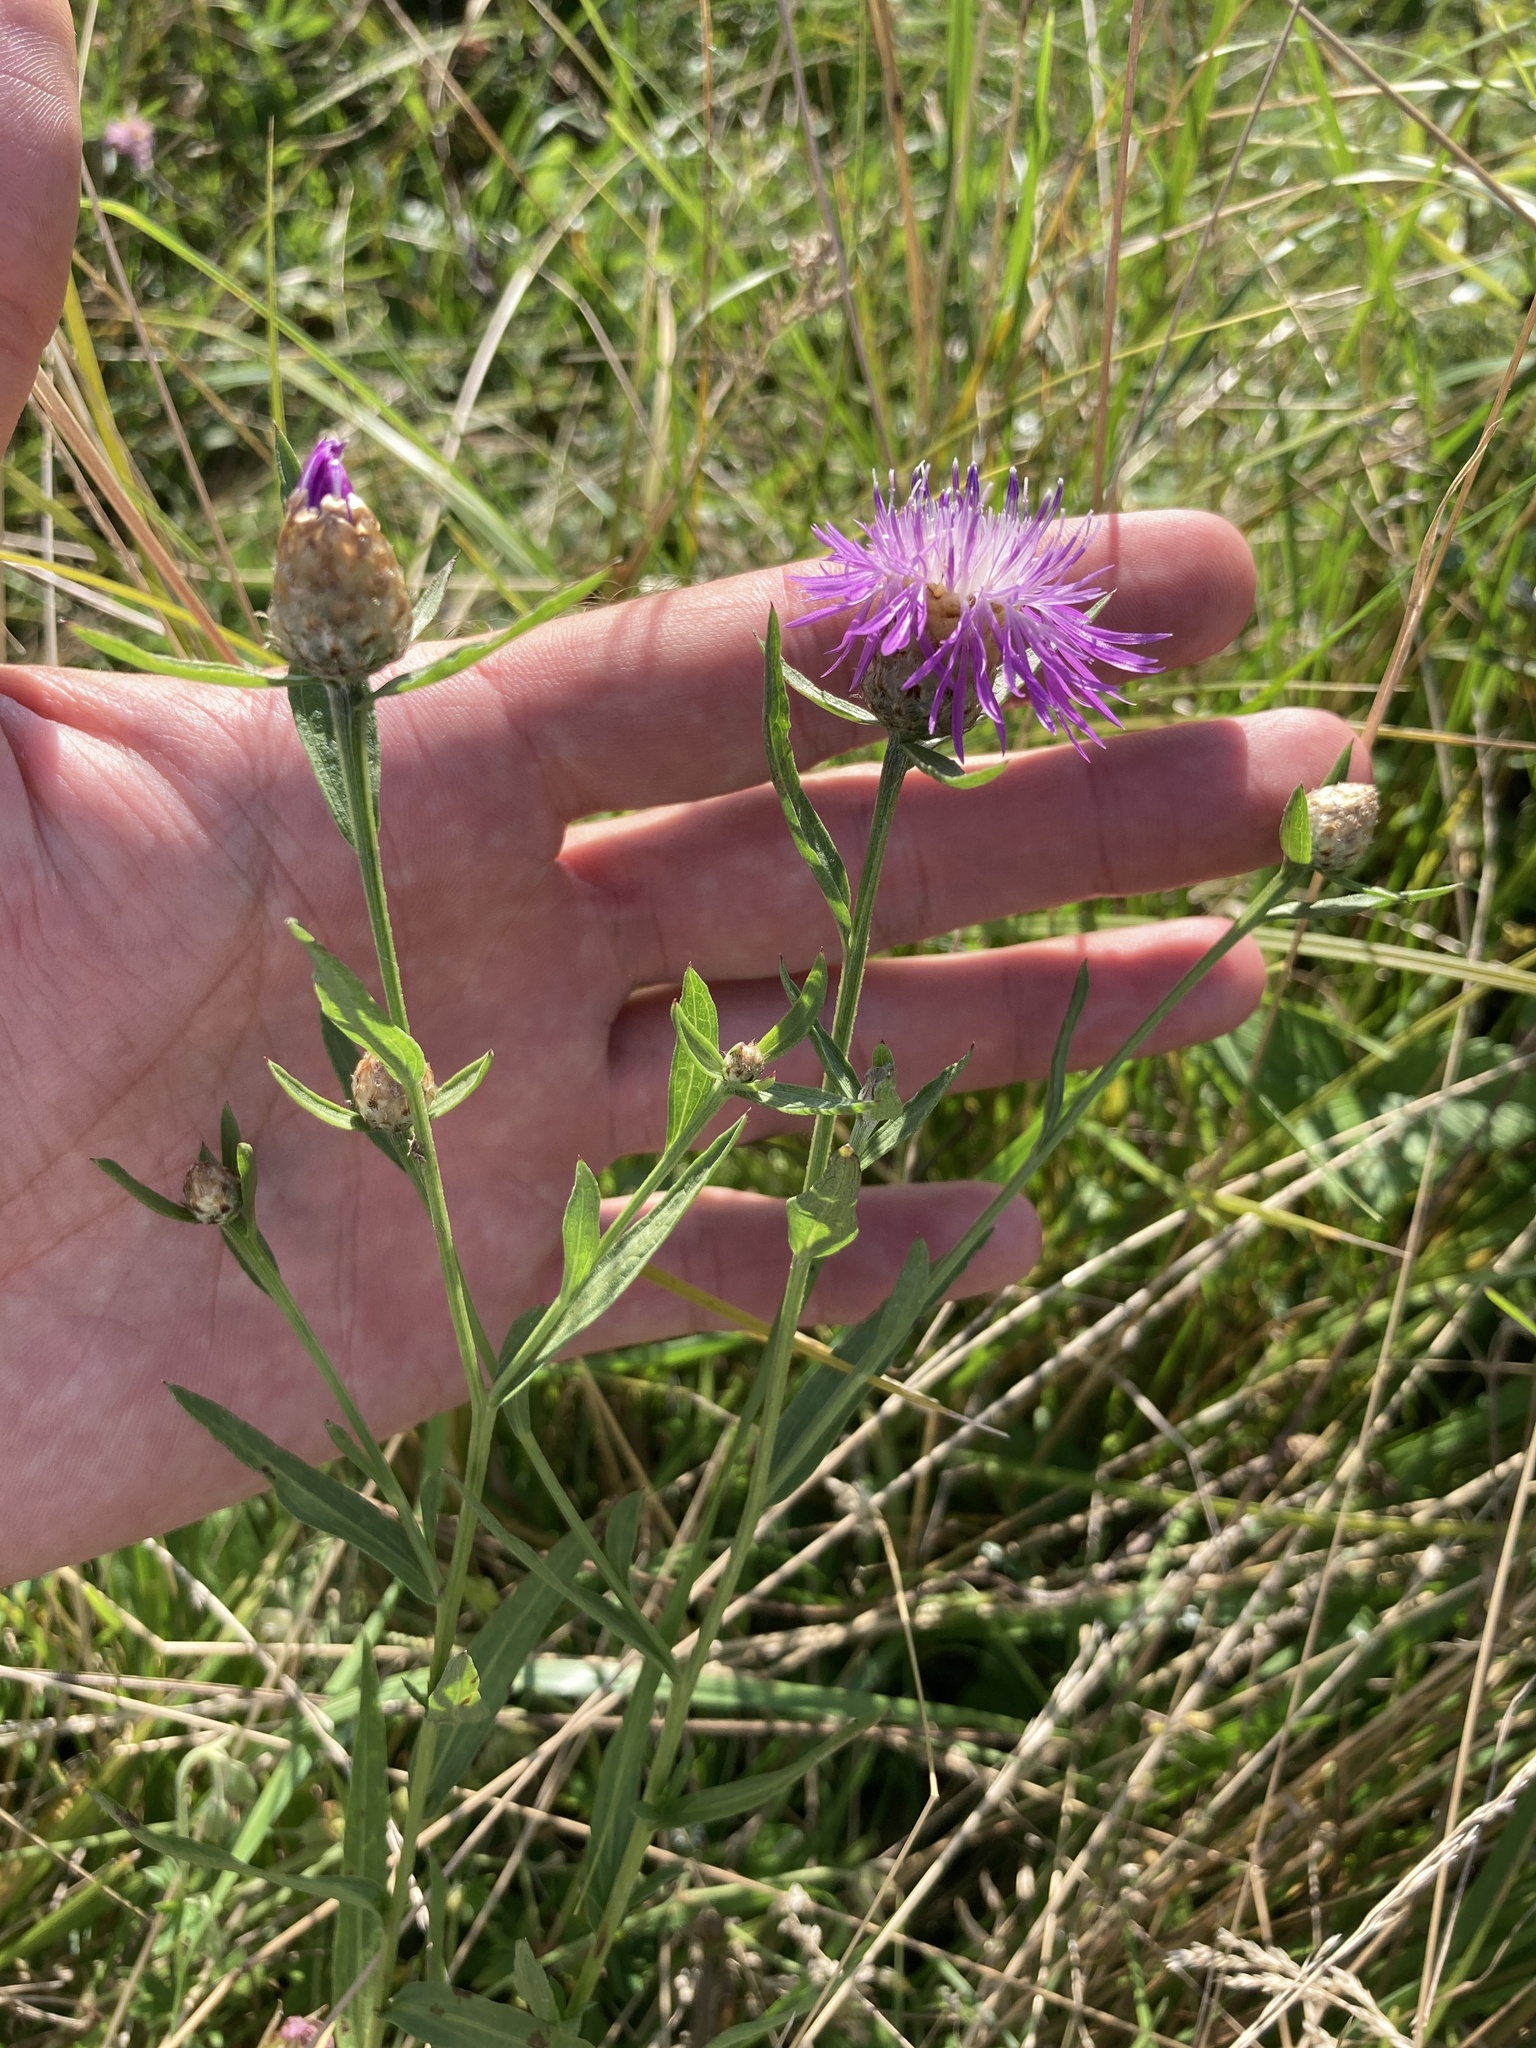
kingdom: Plantae
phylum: Tracheophyta
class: Magnoliopsida
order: Asterales
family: Asteraceae
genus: Centaurea
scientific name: Centaurea jacea
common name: Brown knapweed
